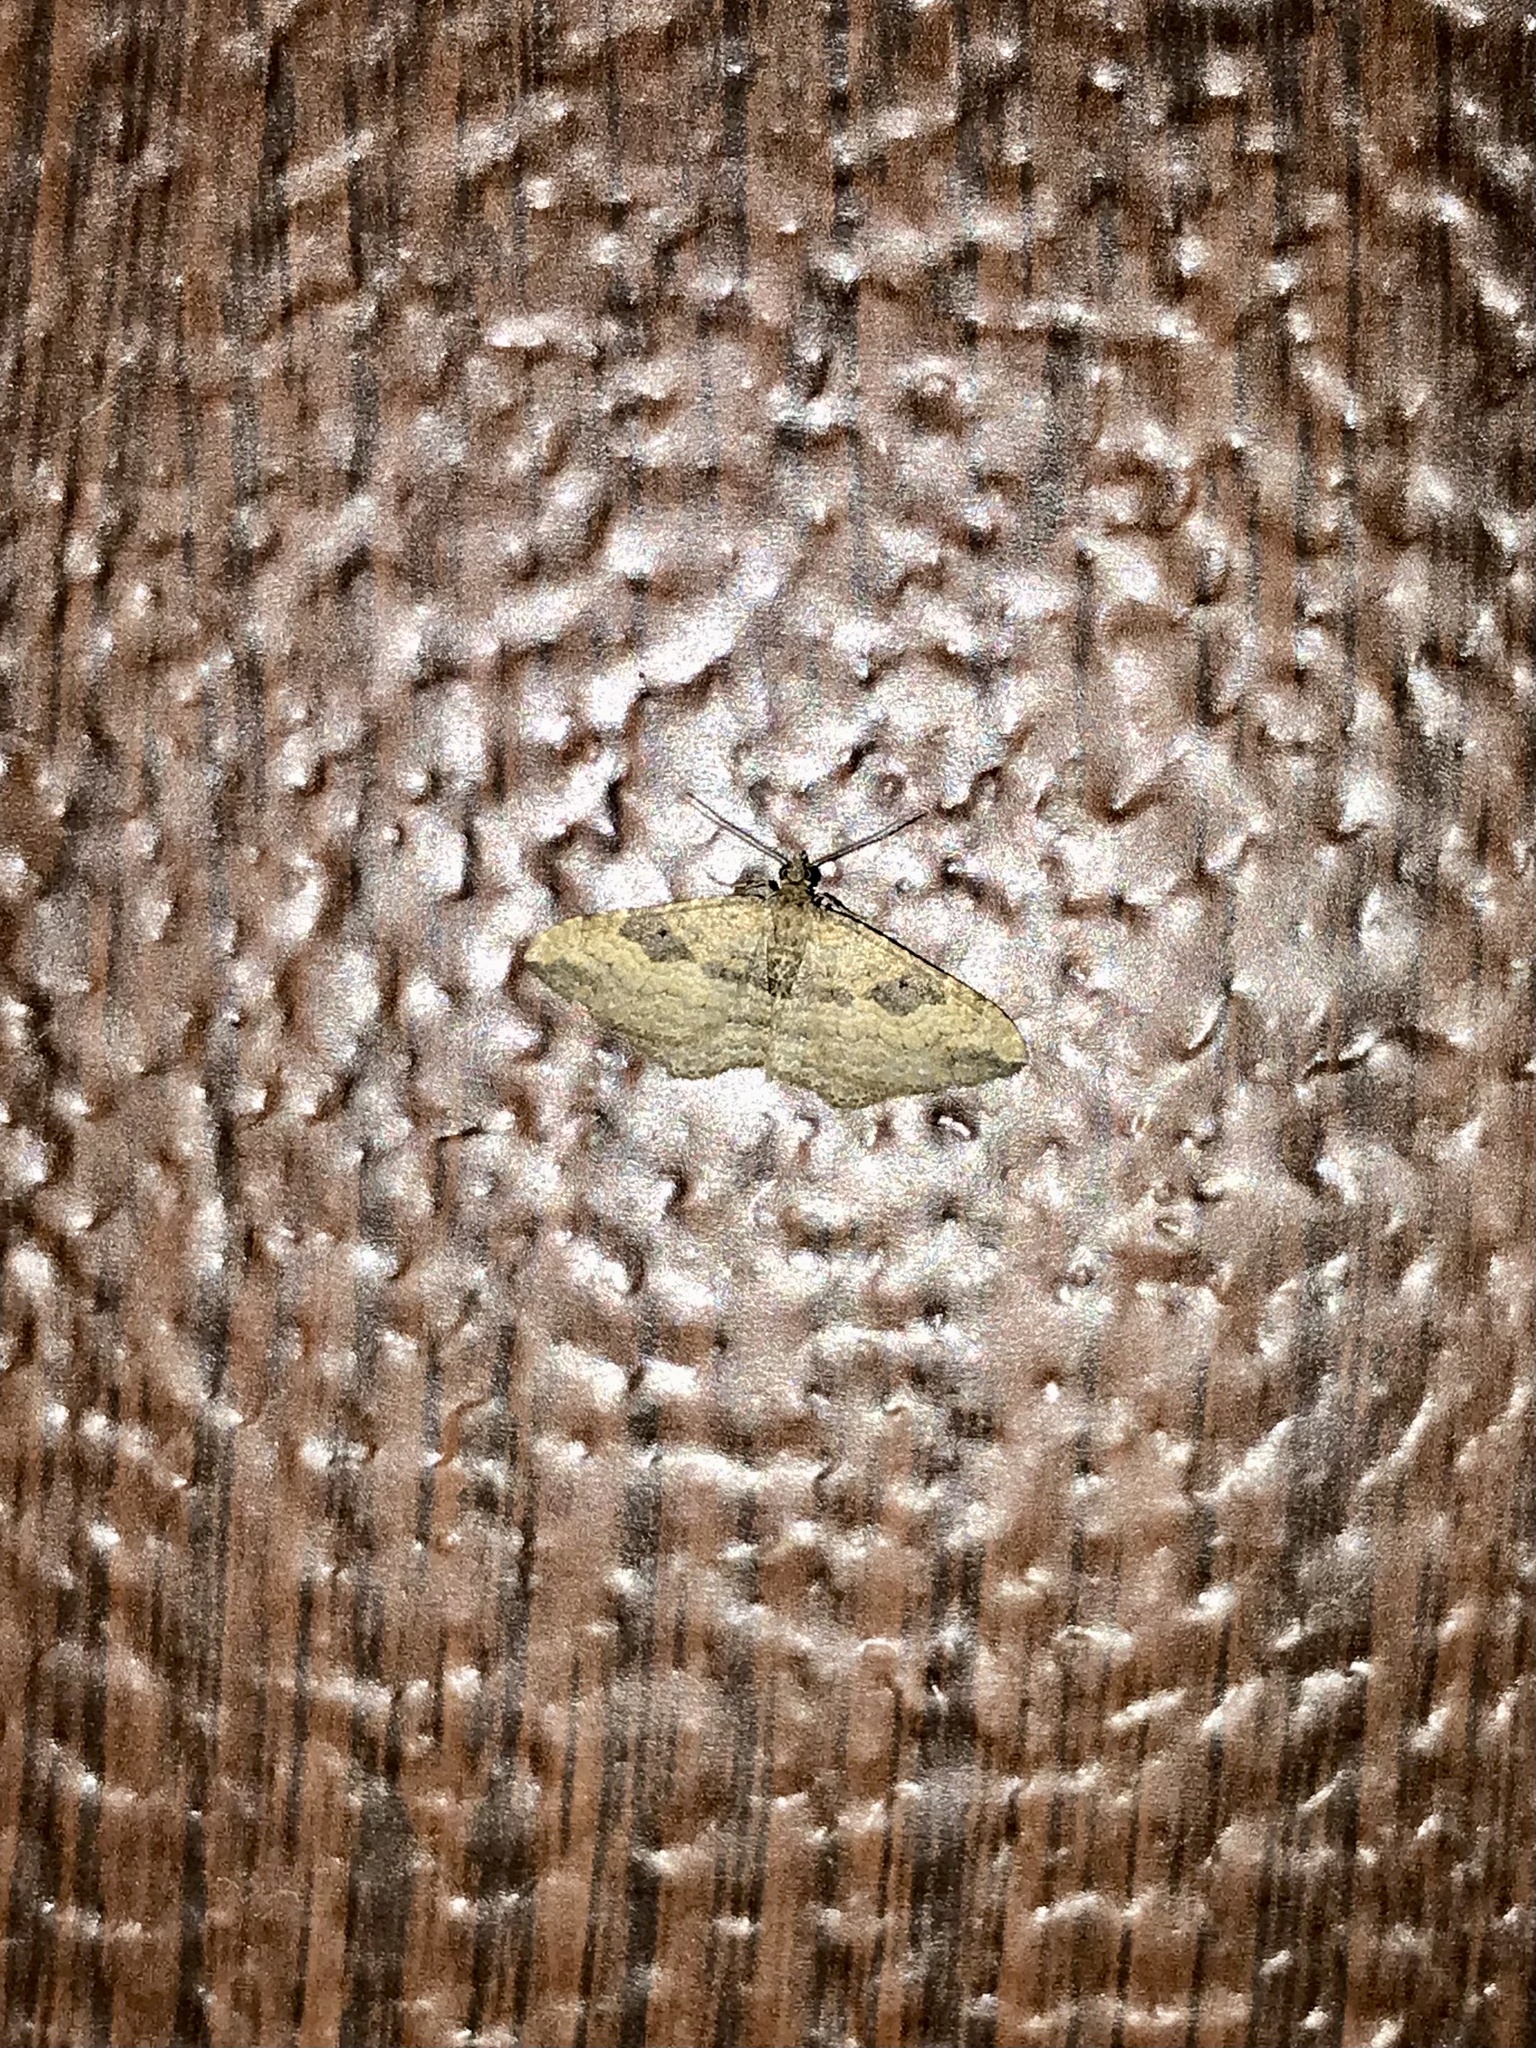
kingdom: Animalia
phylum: Arthropoda
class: Insecta
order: Lepidoptera
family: Geometridae
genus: Orthonama
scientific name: Orthonama obstipata
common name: The gem
